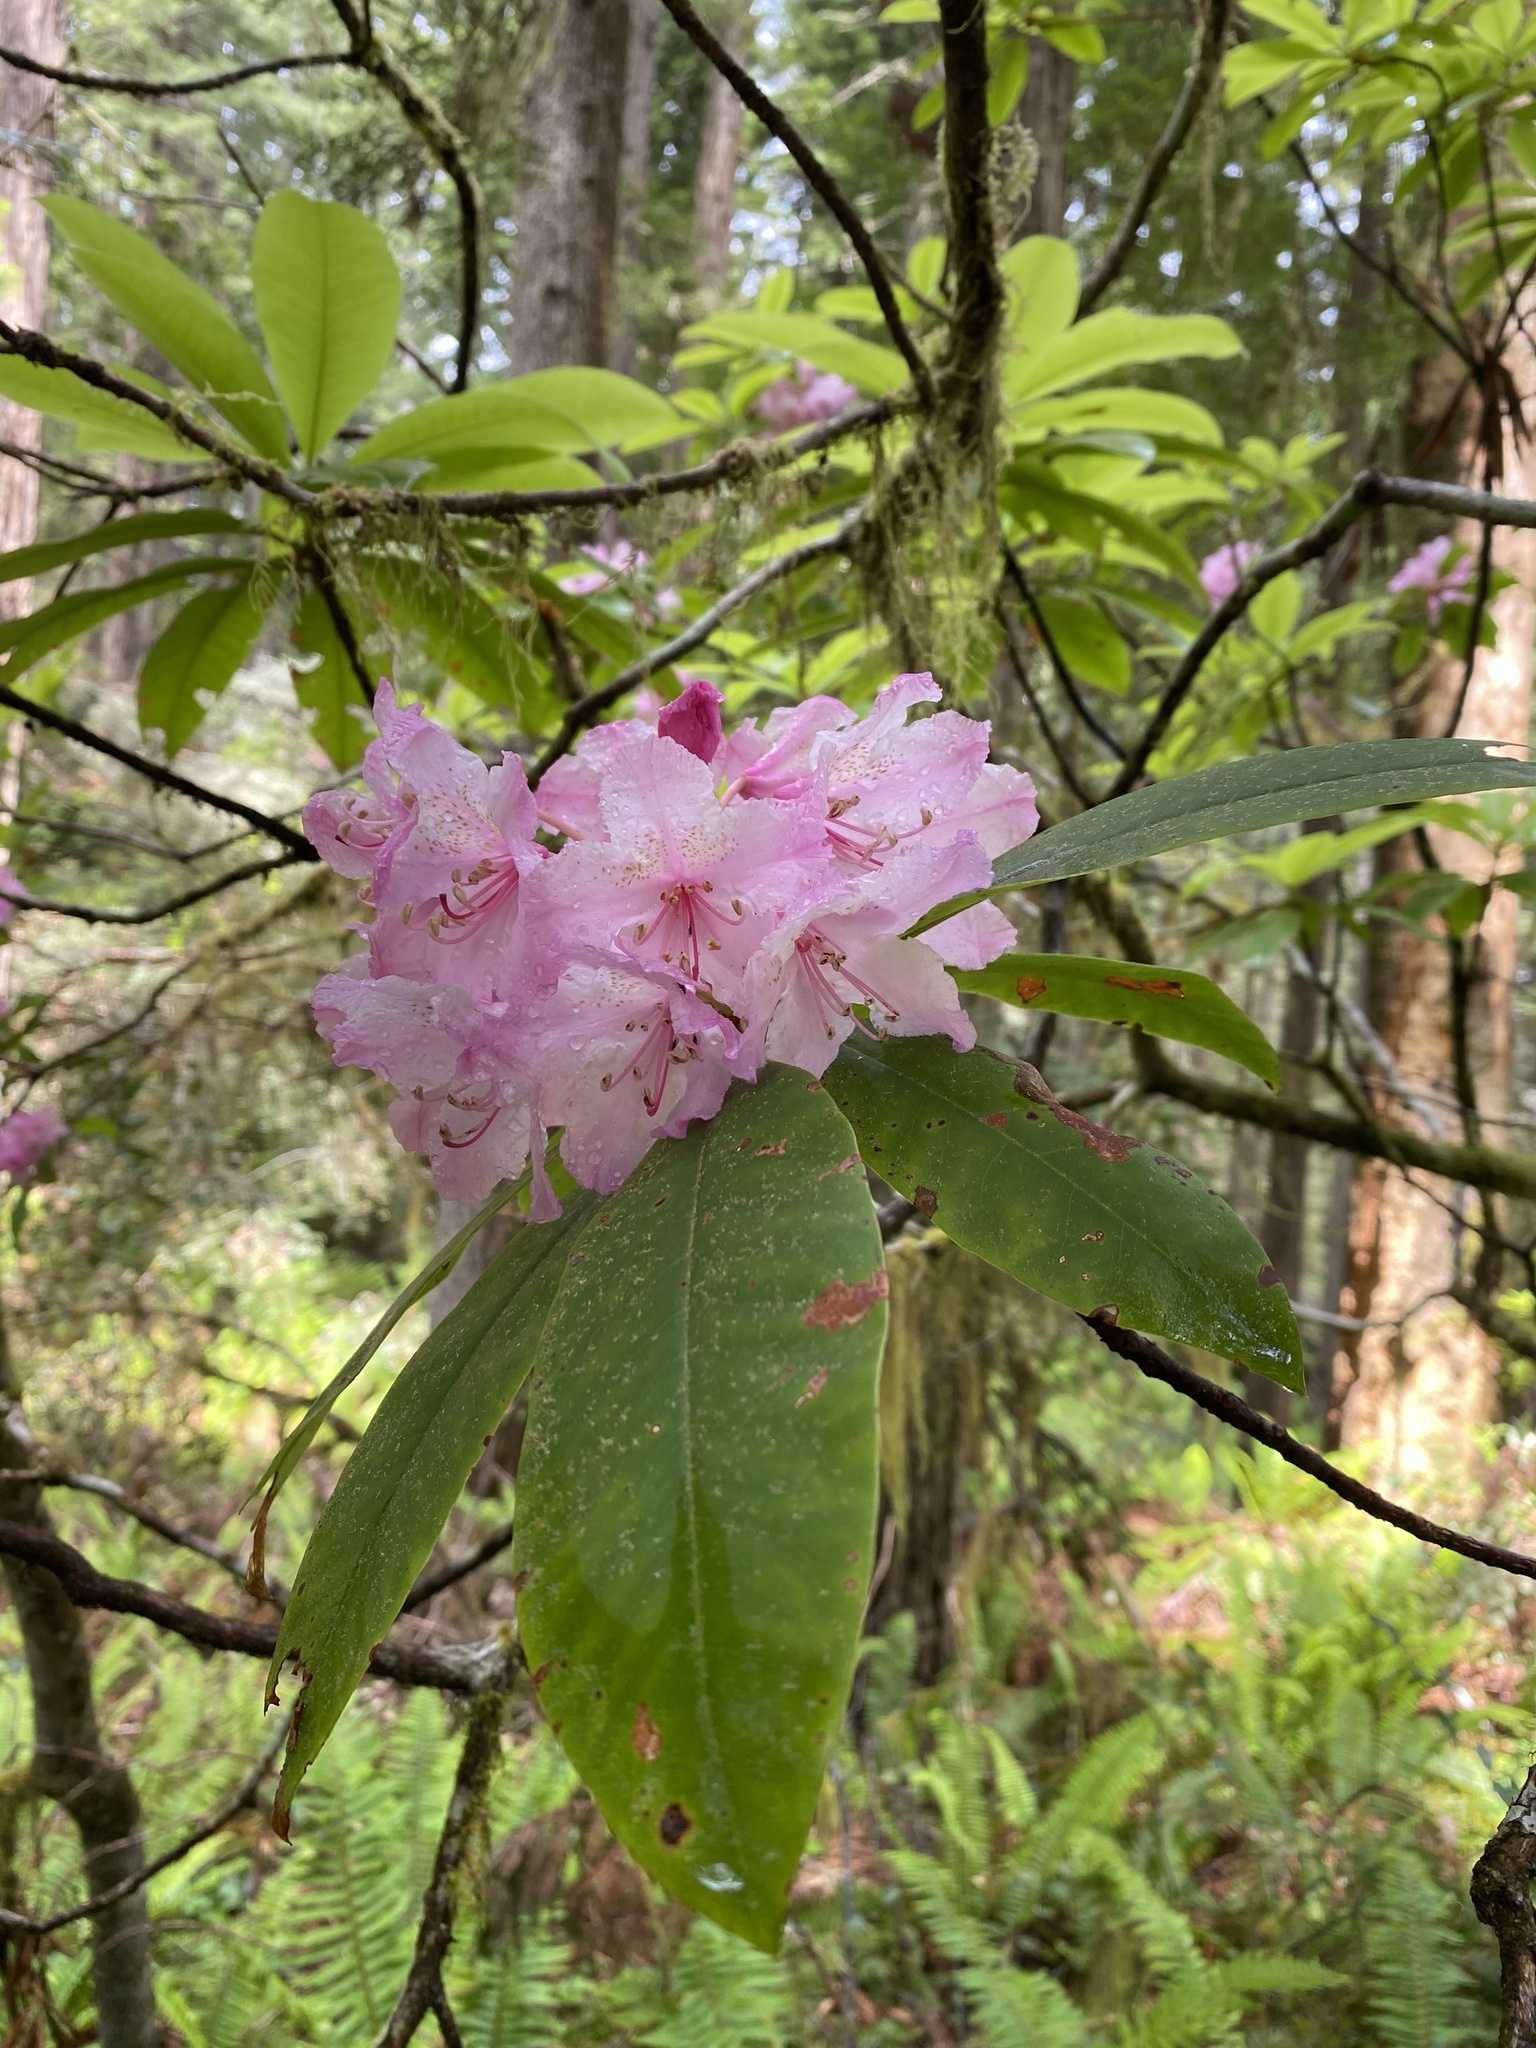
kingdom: Plantae
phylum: Tracheophyta
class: Magnoliopsida
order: Ericales
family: Ericaceae
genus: Rhododendron
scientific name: Rhododendron macrophyllum
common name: California rose bay
